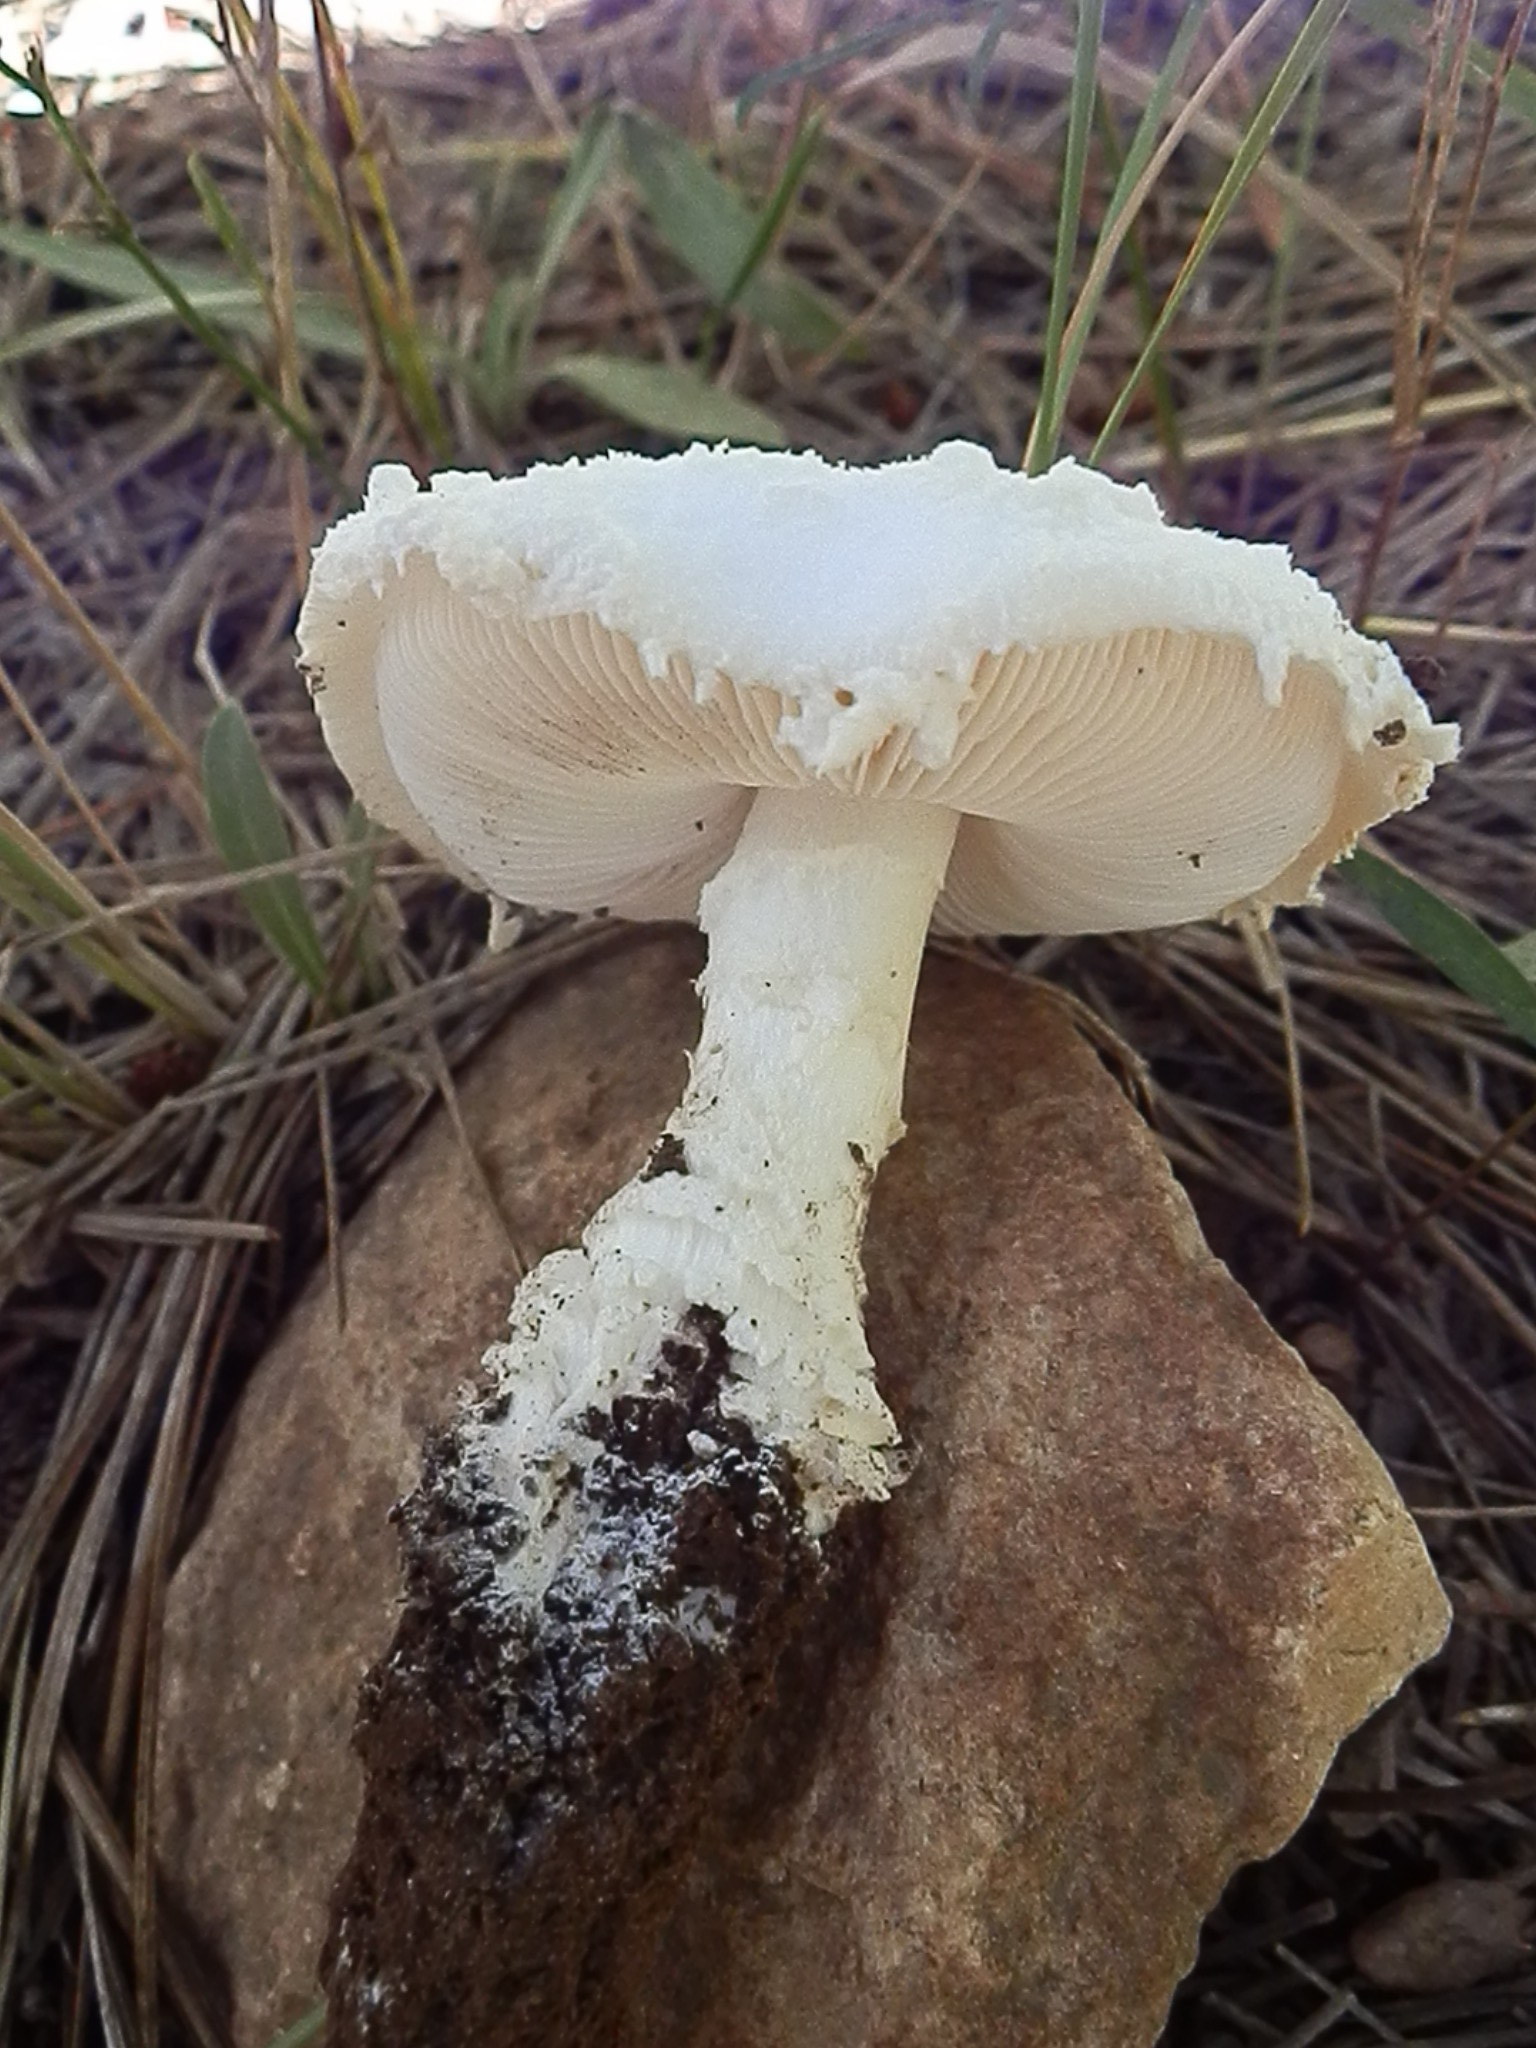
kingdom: Fungi
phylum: Basidiomycota
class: Agaricomycetes
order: Agaricales
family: Amanitaceae
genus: Amanita
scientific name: Amanita magniverrucata
